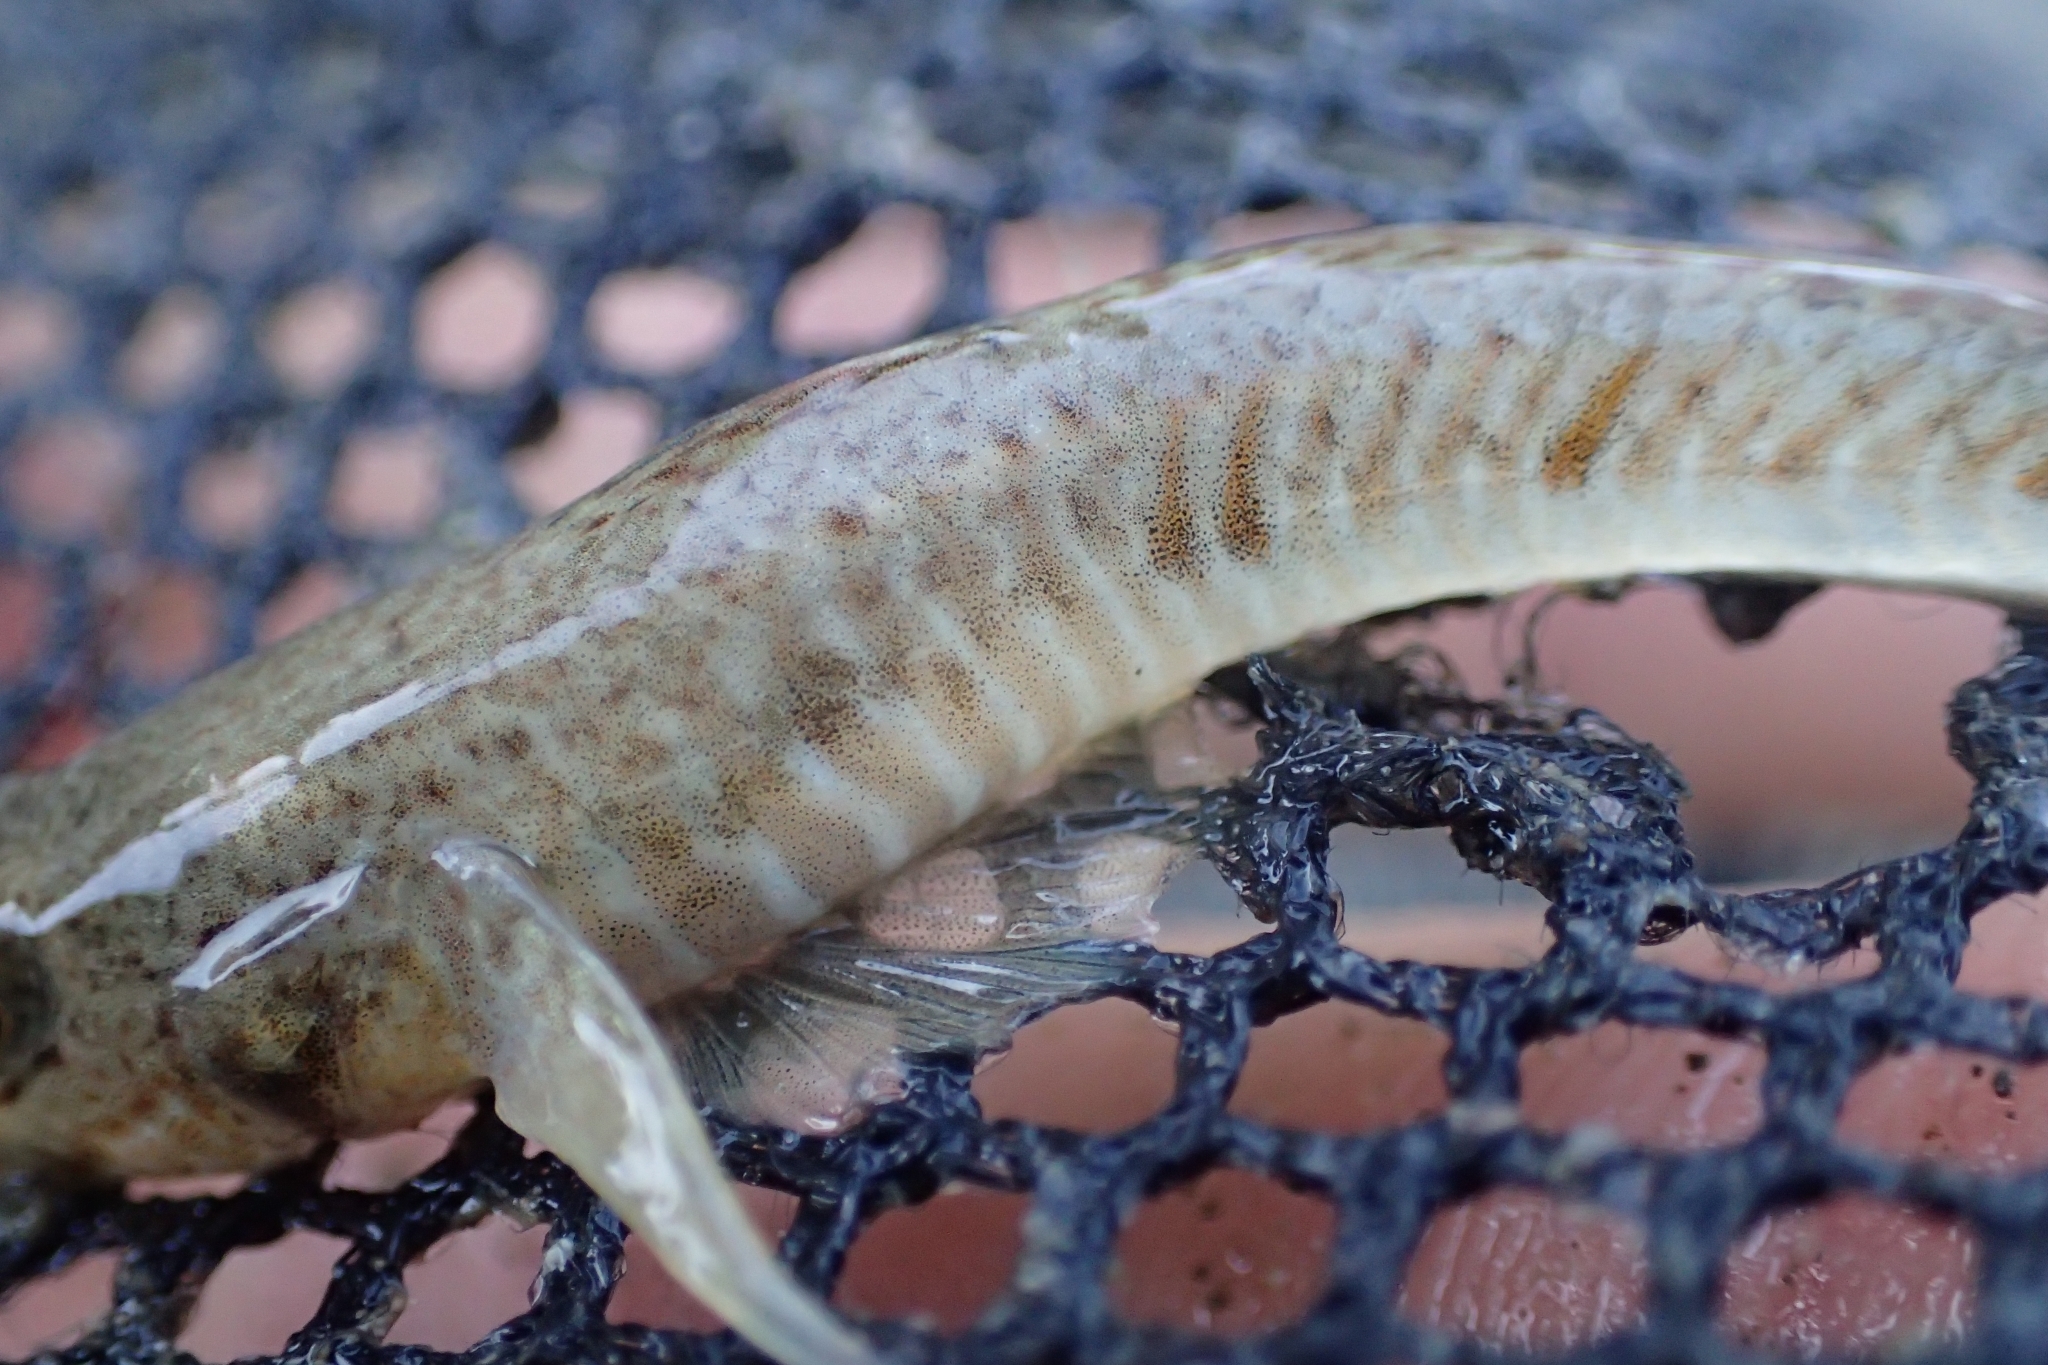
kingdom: Animalia
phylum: Chordata
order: Perciformes
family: Gobiidae
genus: Favonigobius
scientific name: Favonigobius lentiginosus
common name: Eastern longfin goby
